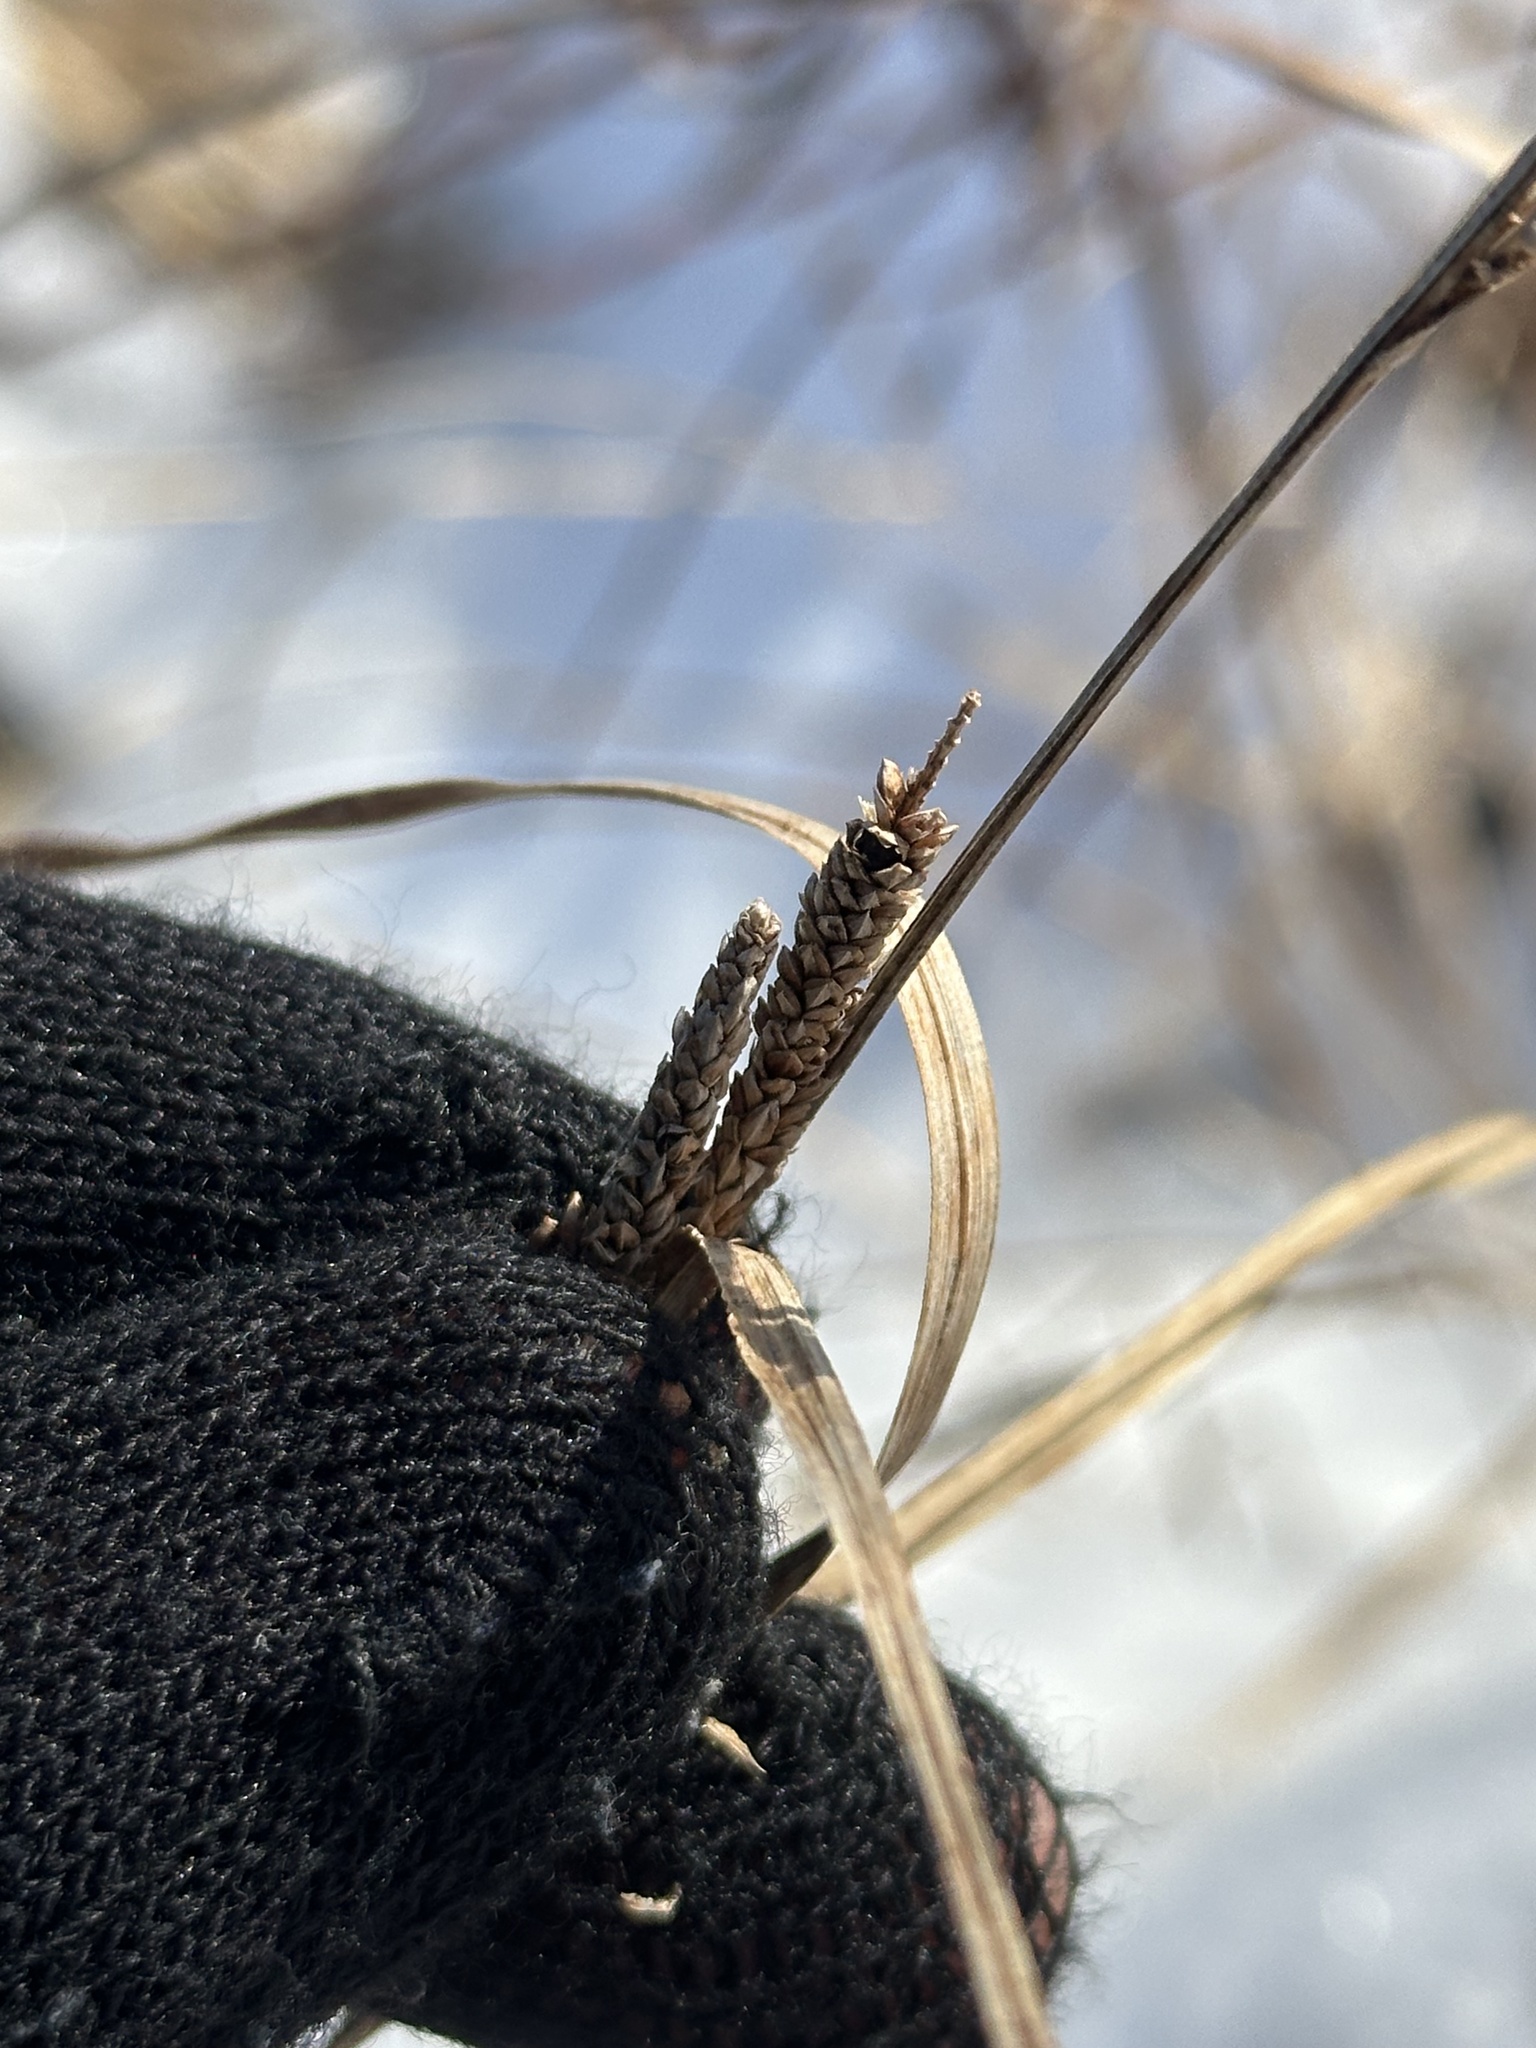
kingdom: Plantae
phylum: Tracheophyta
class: Liliopsida
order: Poales
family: Cyperaceae
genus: Carex
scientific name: Carex aquatilis
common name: Water sedge
